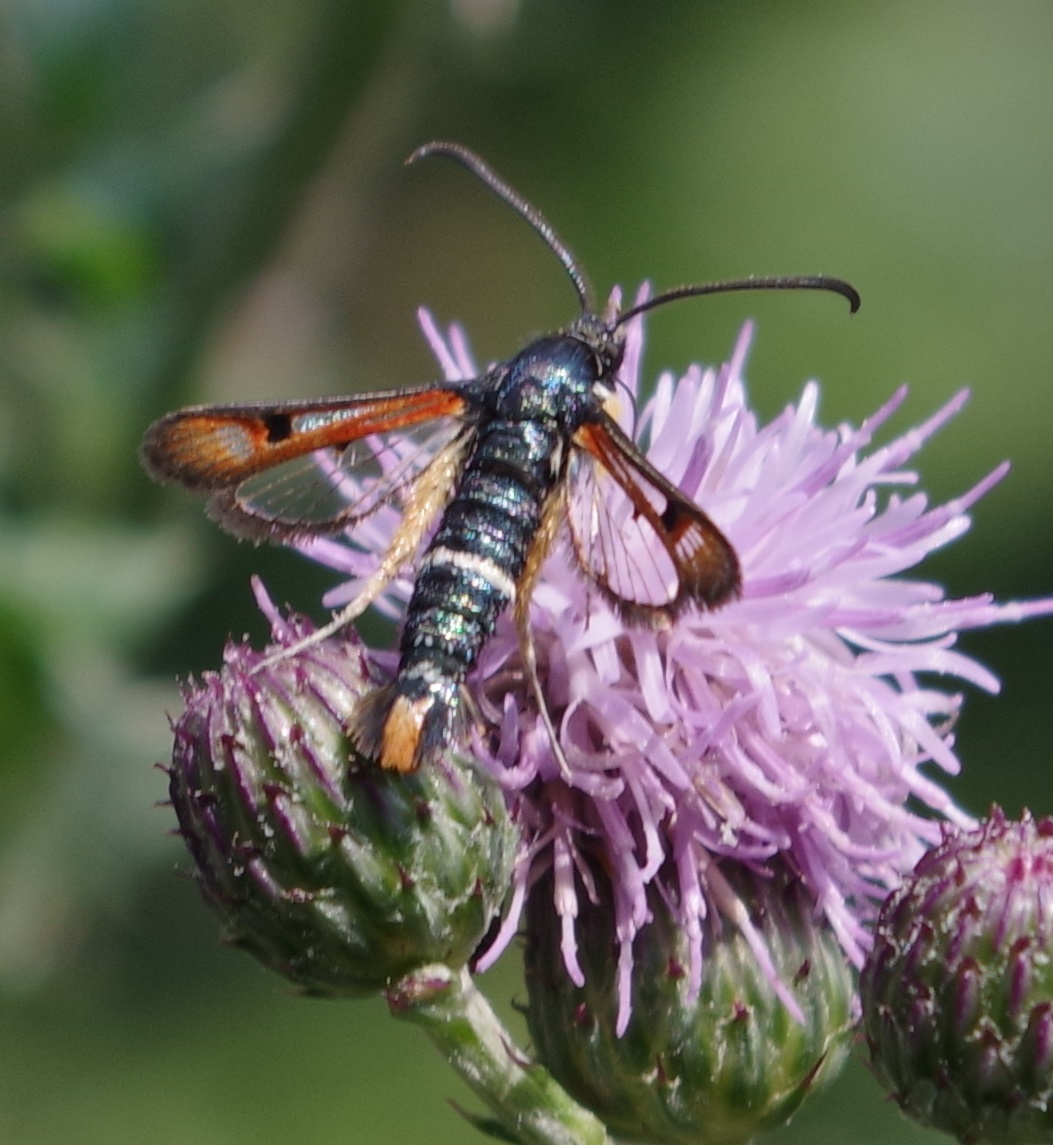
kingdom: Animalia
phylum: Arthropoda
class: Insecta
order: Lepidoptera
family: Sesiidae
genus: Pyropteron
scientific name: Pyropteron chrysidiforme
